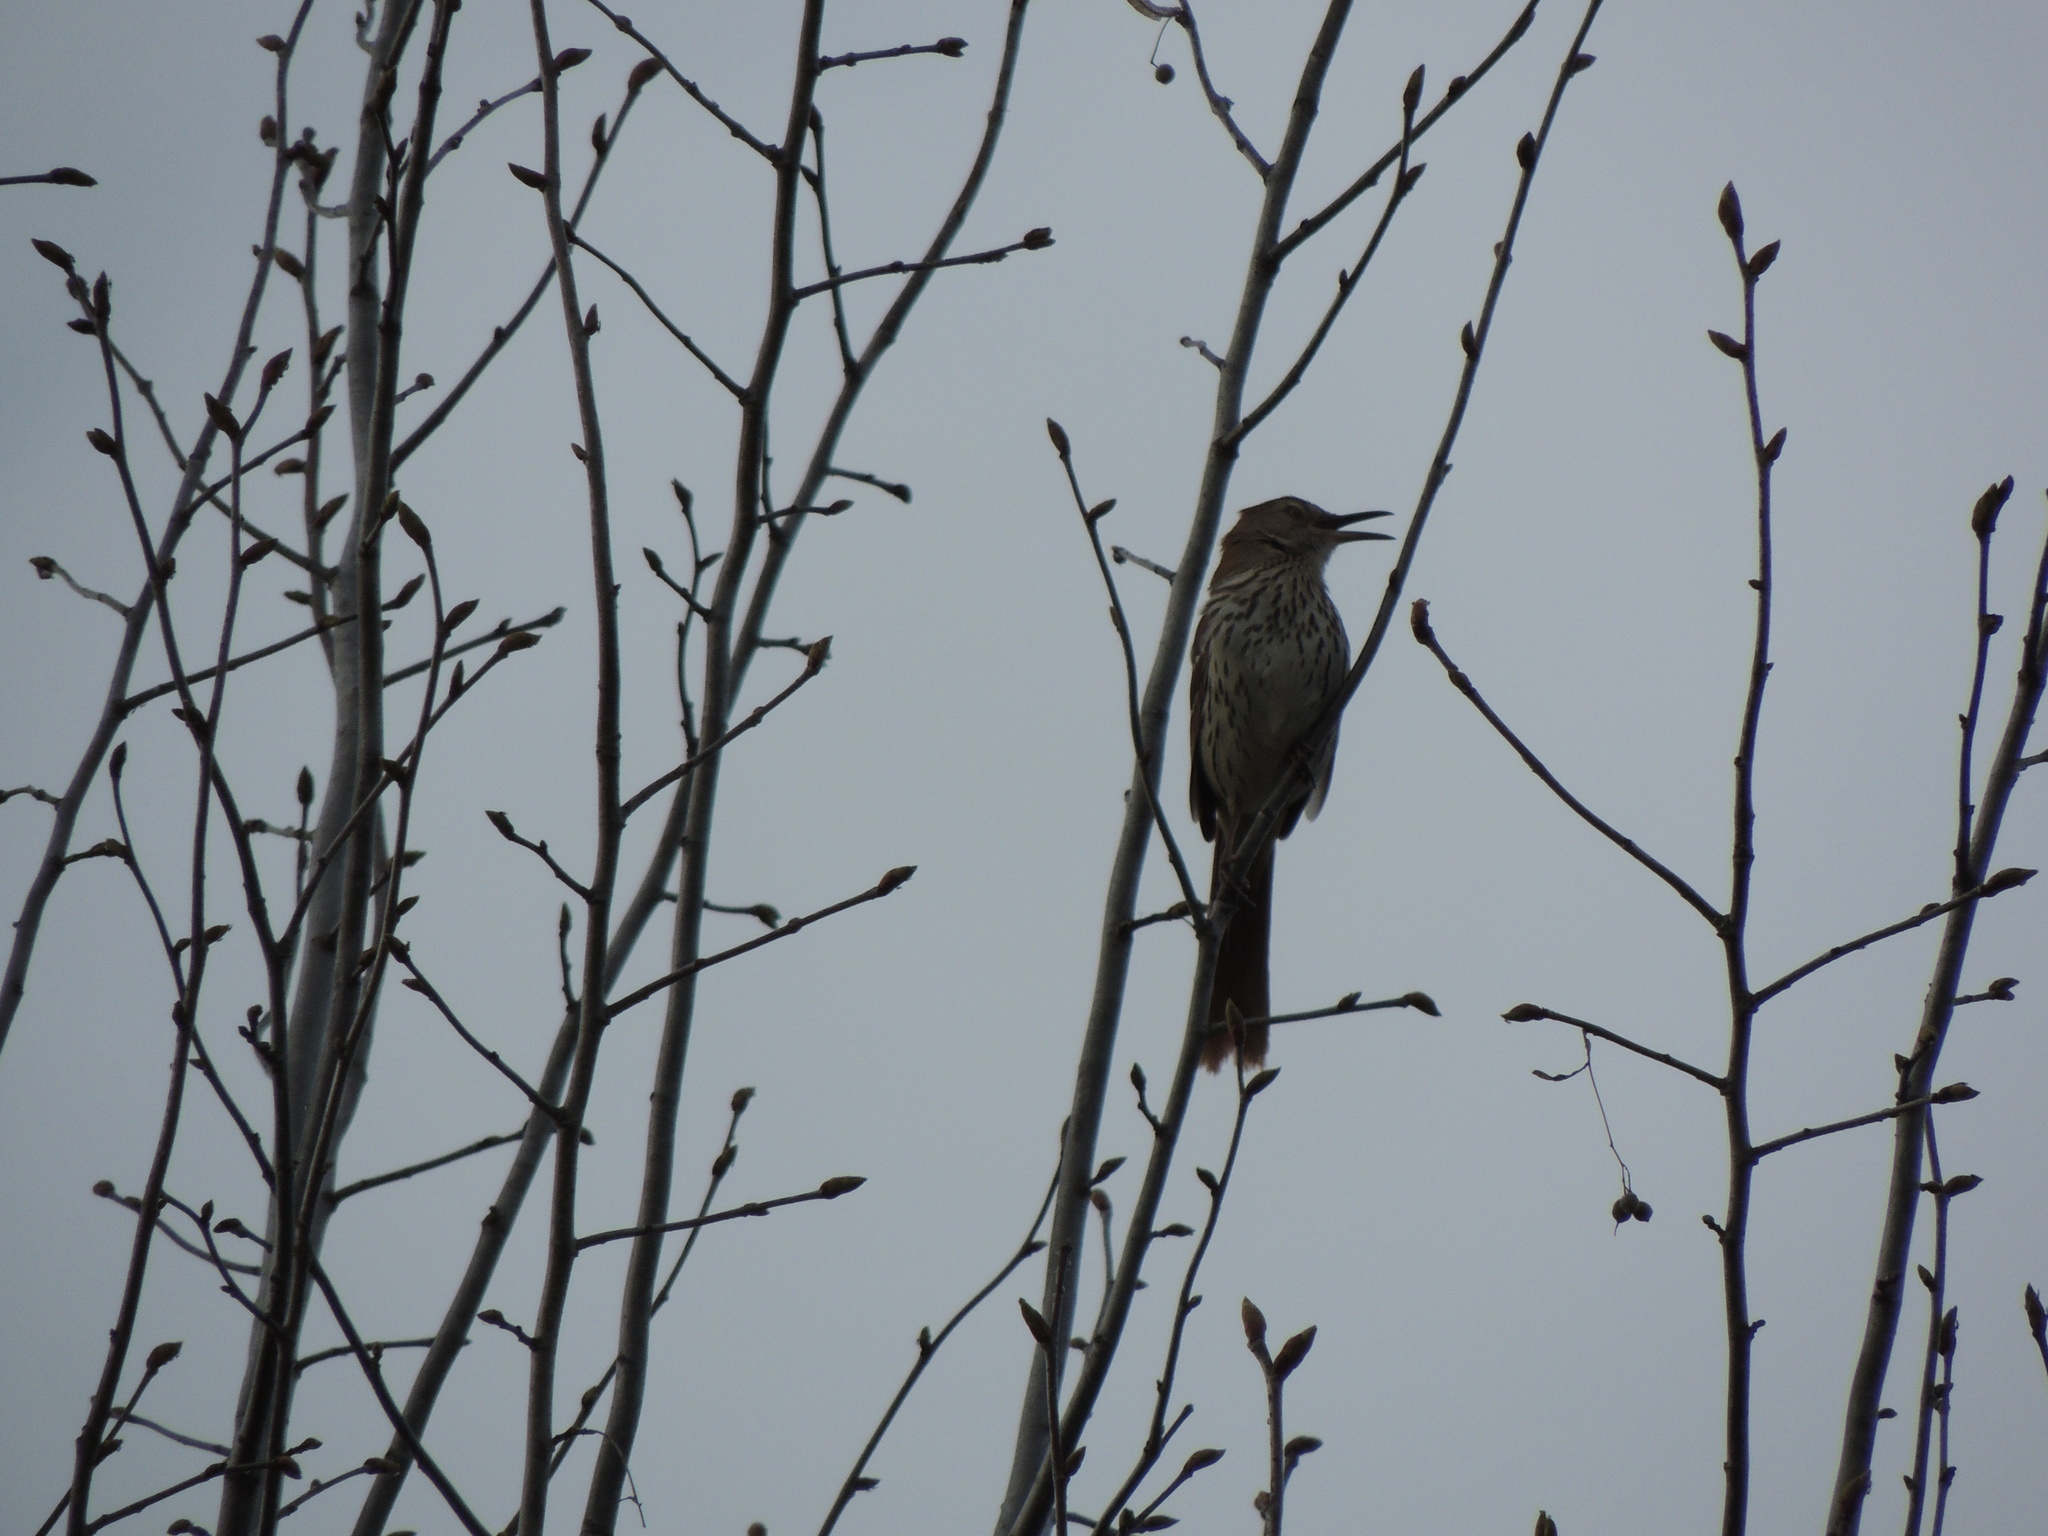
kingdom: Animalia
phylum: Chordata
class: Aves
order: Passeriformes
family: Mimidae
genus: Toxostoma
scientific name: Toxostoma rufum
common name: Brown thrasher
